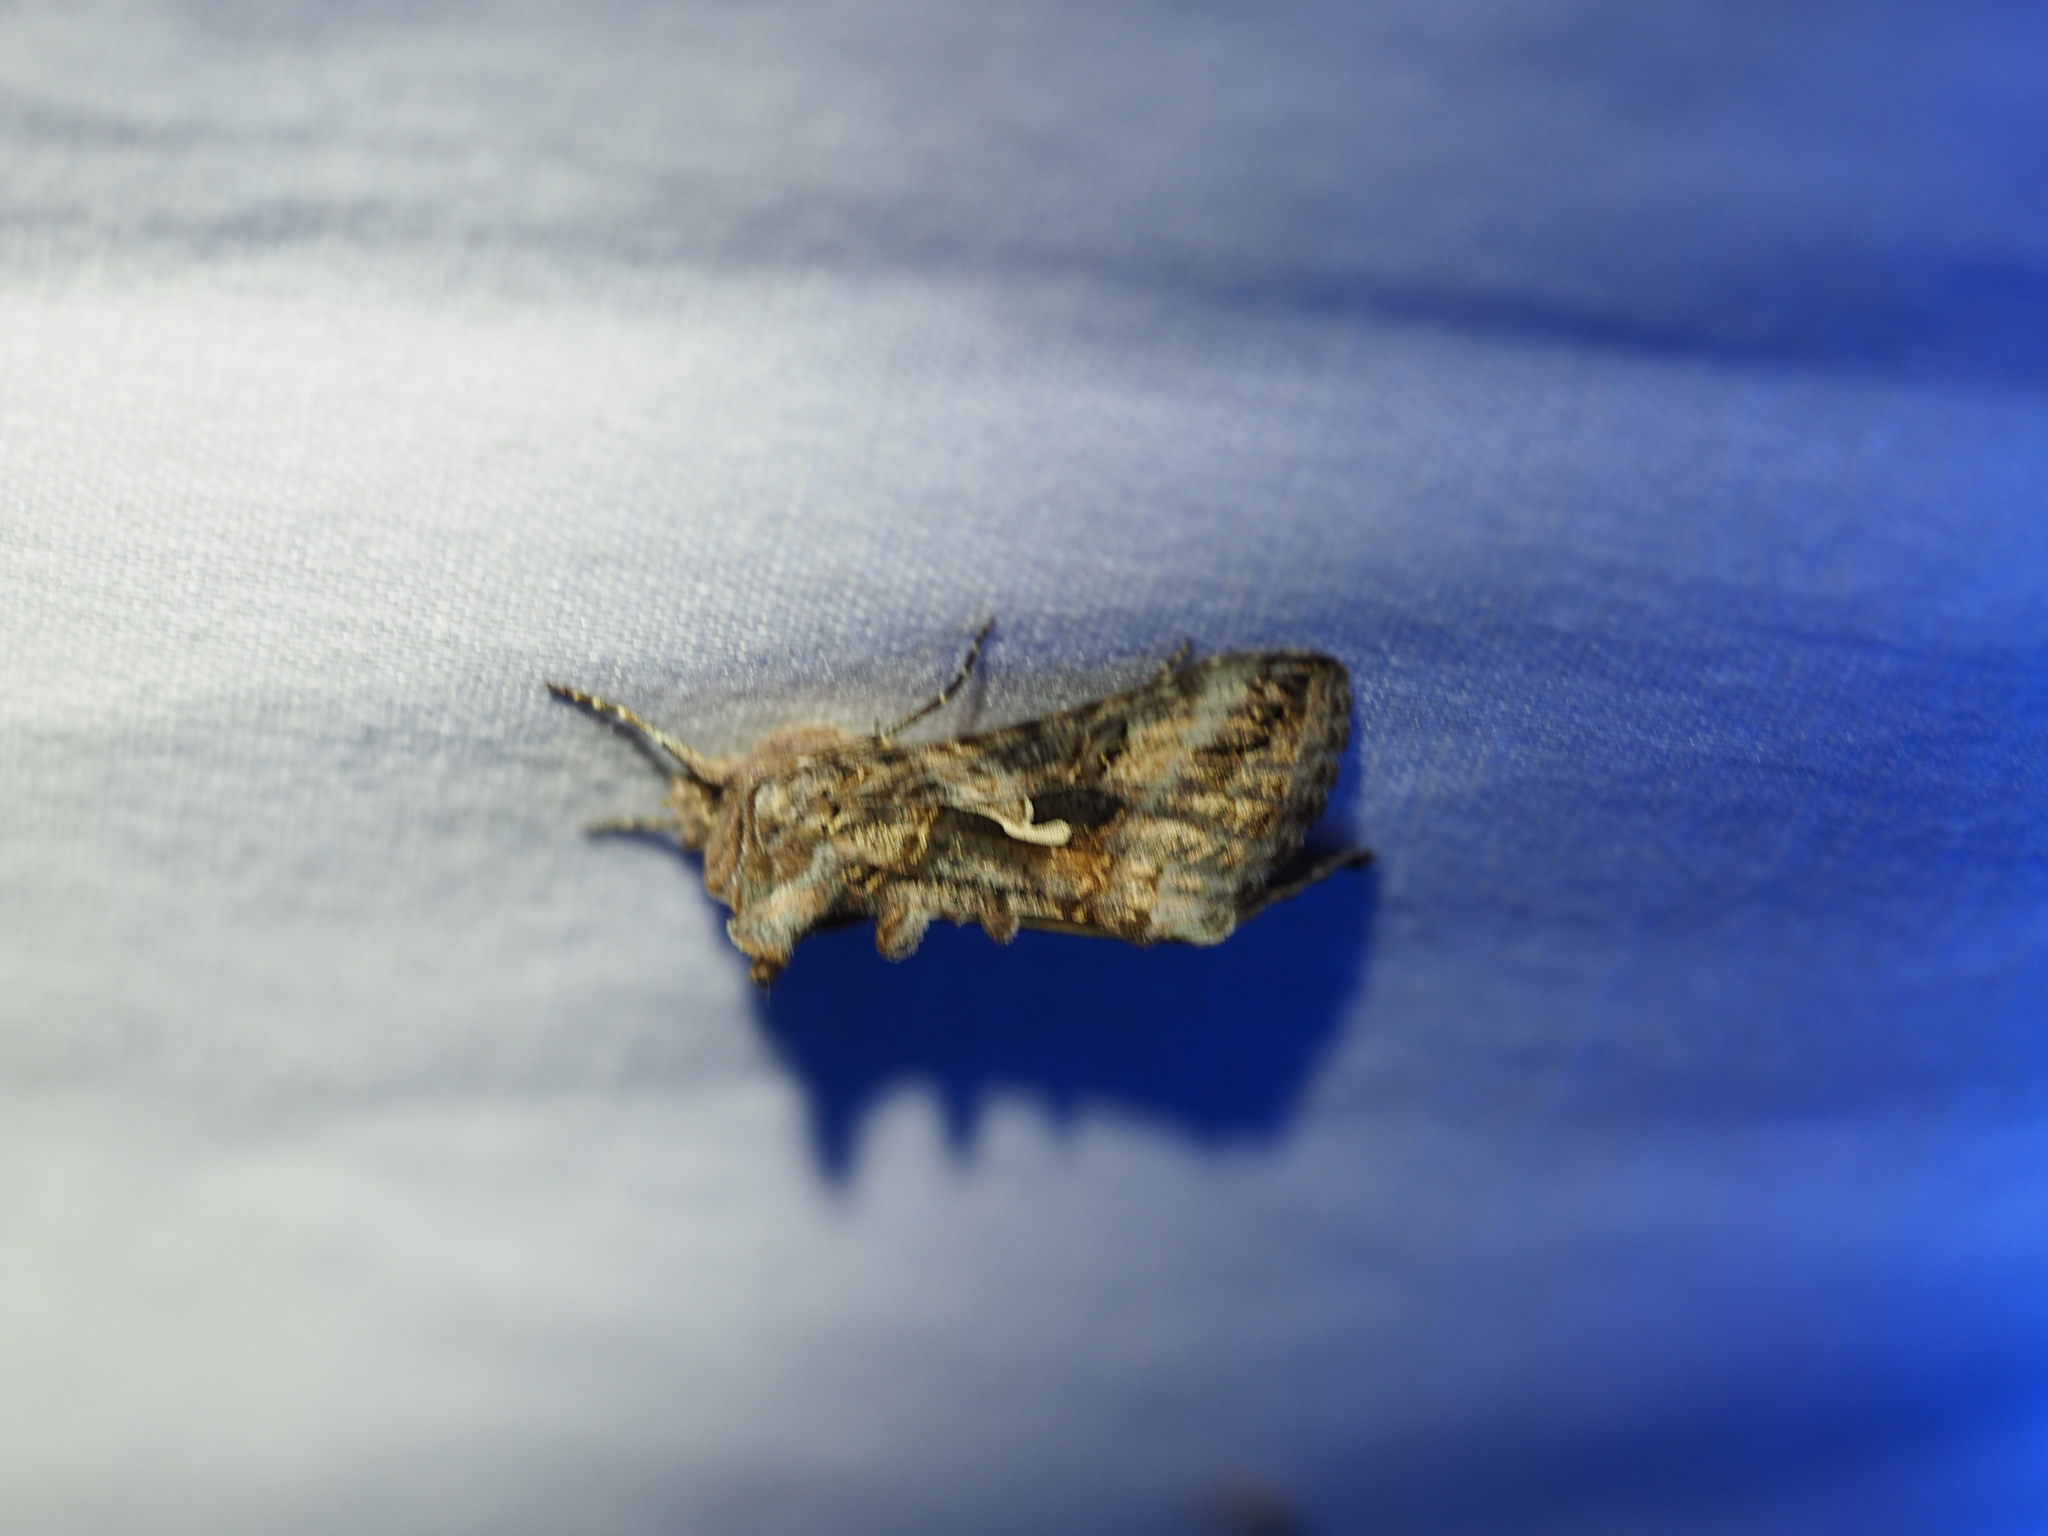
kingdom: Animalia
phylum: Arthropoda
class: Insecta
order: Lepidoptera
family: Noctuidae
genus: Autographa
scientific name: Autographa californica
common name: Alfalfa looper
